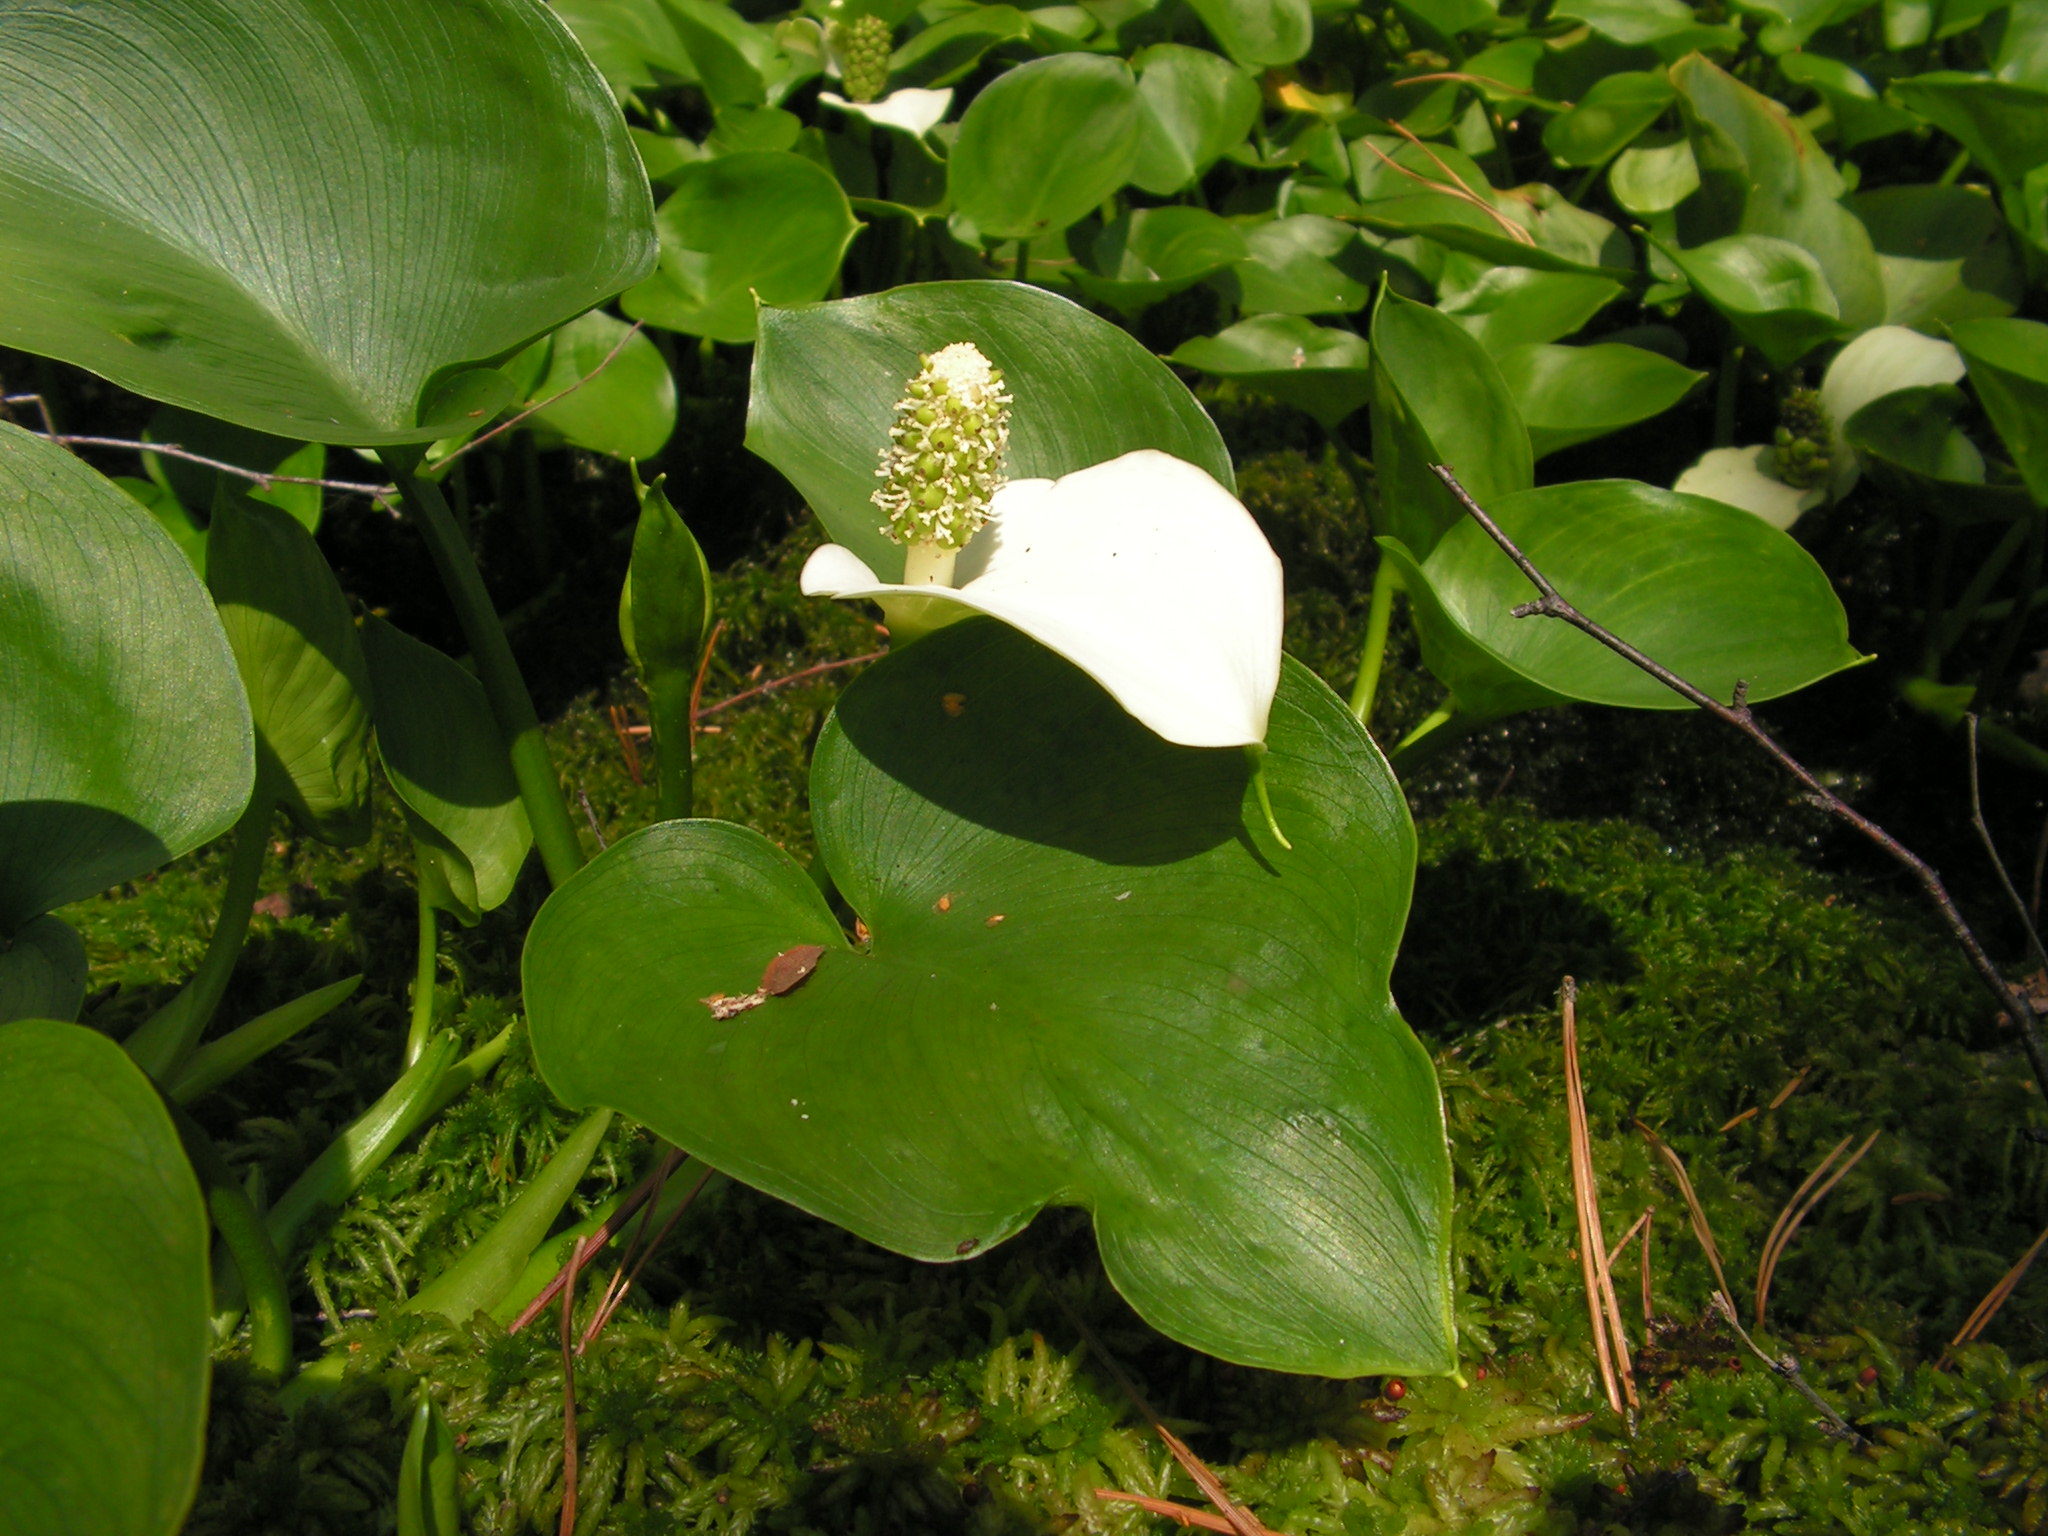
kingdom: Plantae
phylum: Tracheophyta
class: Liliopsida
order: Alismatales
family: Araceae
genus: Calla
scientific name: Calla palustris
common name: Bog arum
